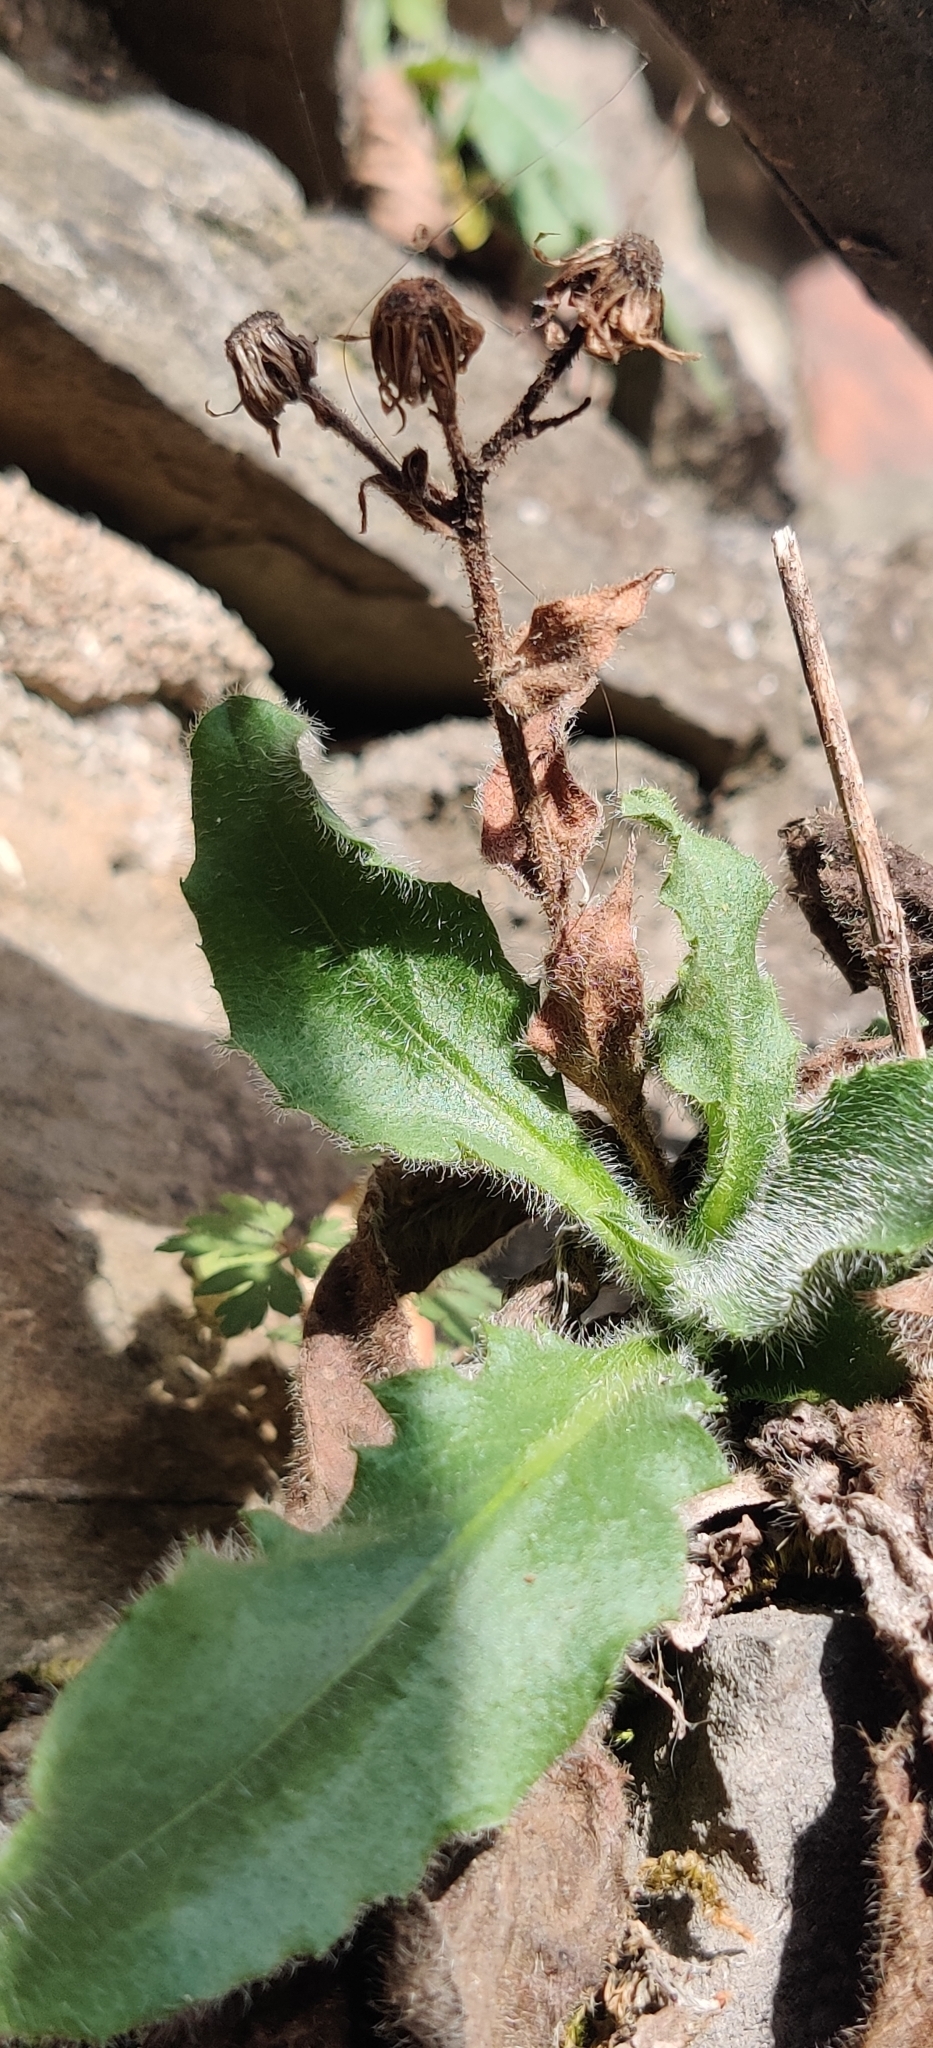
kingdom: Plantae
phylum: Tracheophyta
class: Magnoliopsida
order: Asterales
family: Asteraceae
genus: Hieracium
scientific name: Hieracium amplexicaule
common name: Sticky hawkweed
